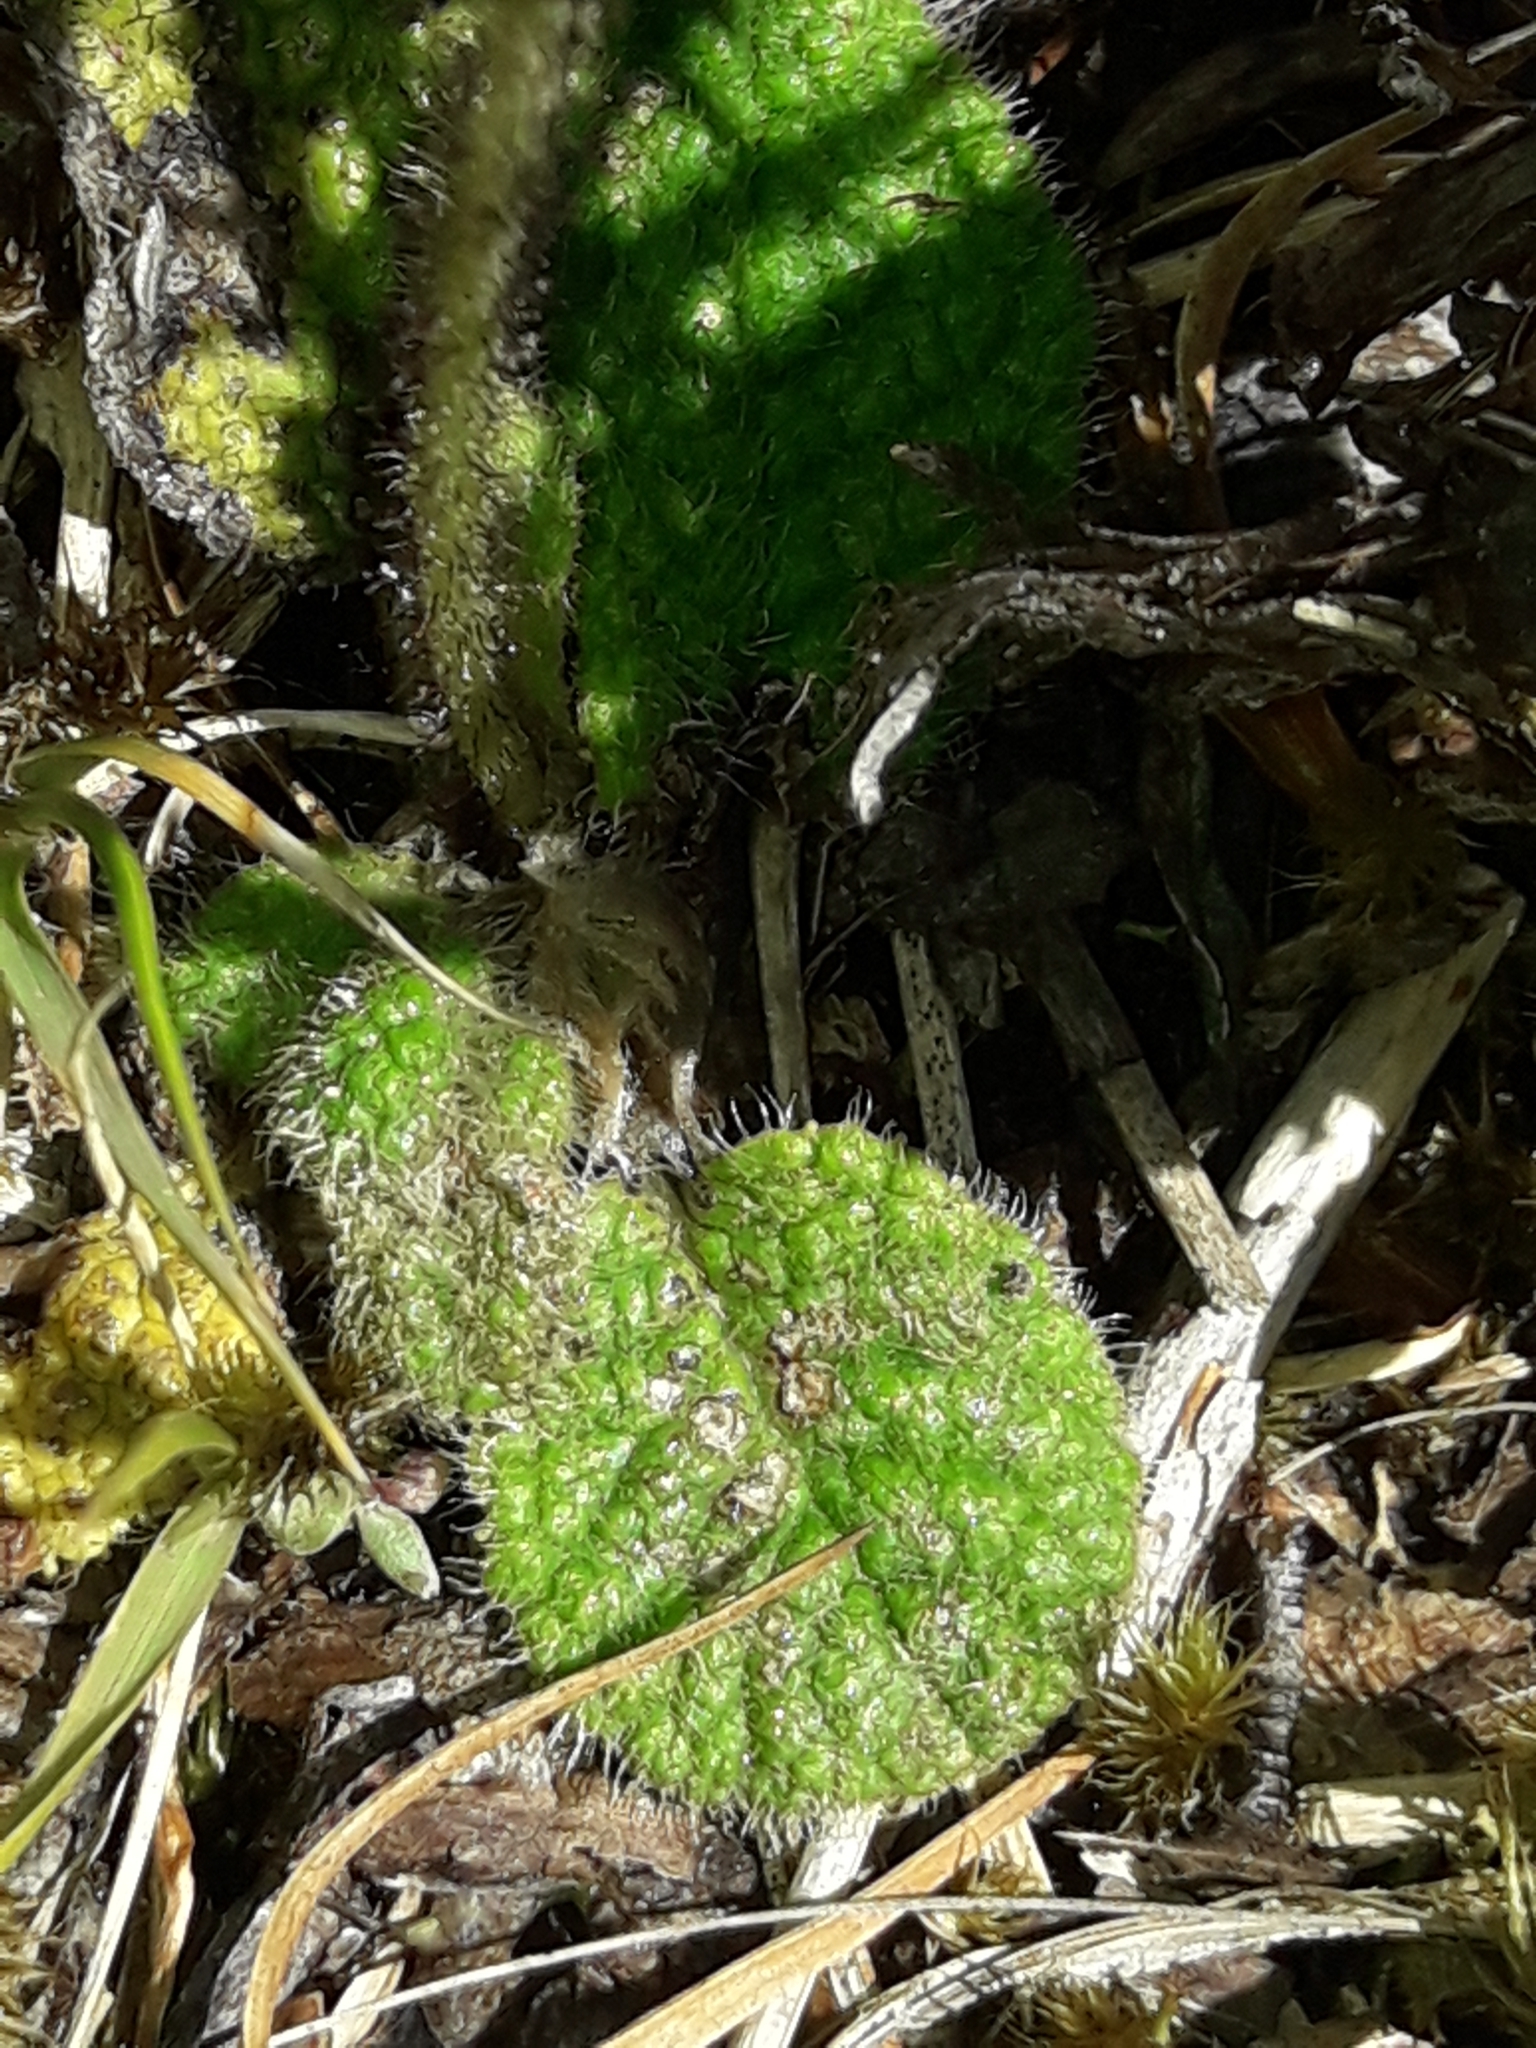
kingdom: Plantae
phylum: Tracheophyta
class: Magnoliopsida
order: Asterales
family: Asteraceae
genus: Brachyglottis
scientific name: Brachyglottis lagopus
